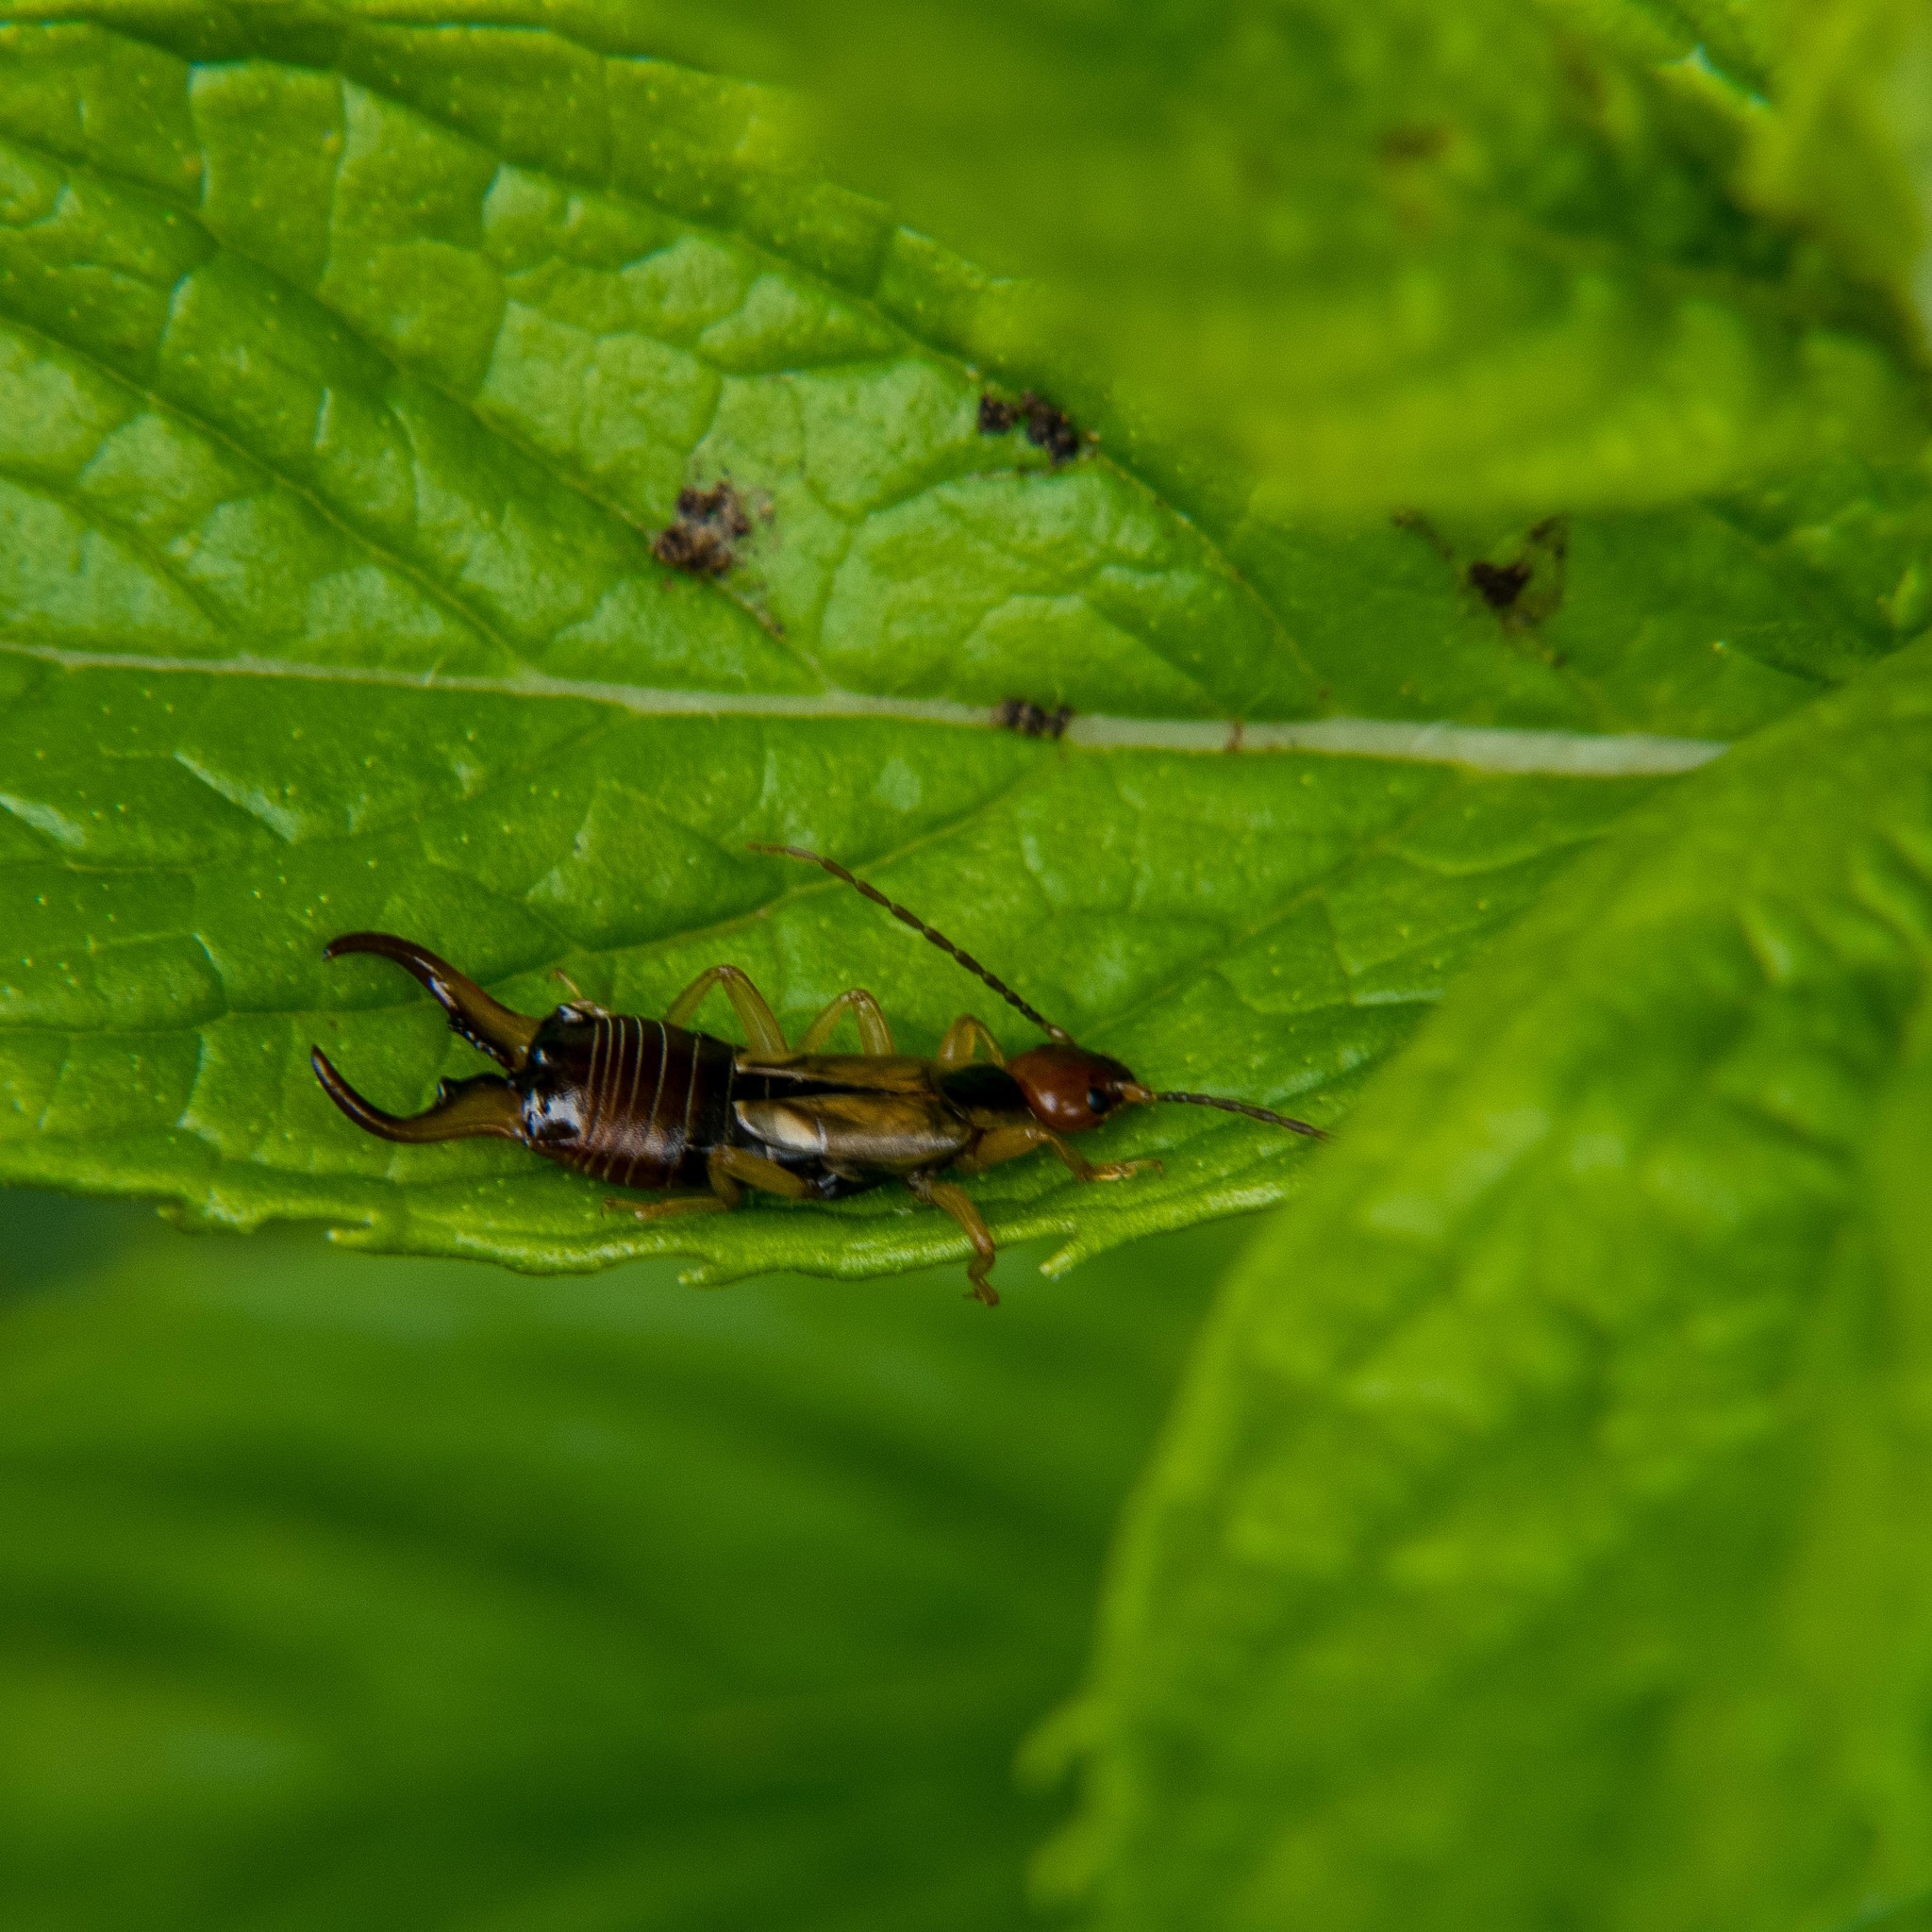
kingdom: Animalia
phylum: Arthropoda
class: Insecta
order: Dermaptera
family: Forficulidae
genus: Forficula
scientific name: Forficula
